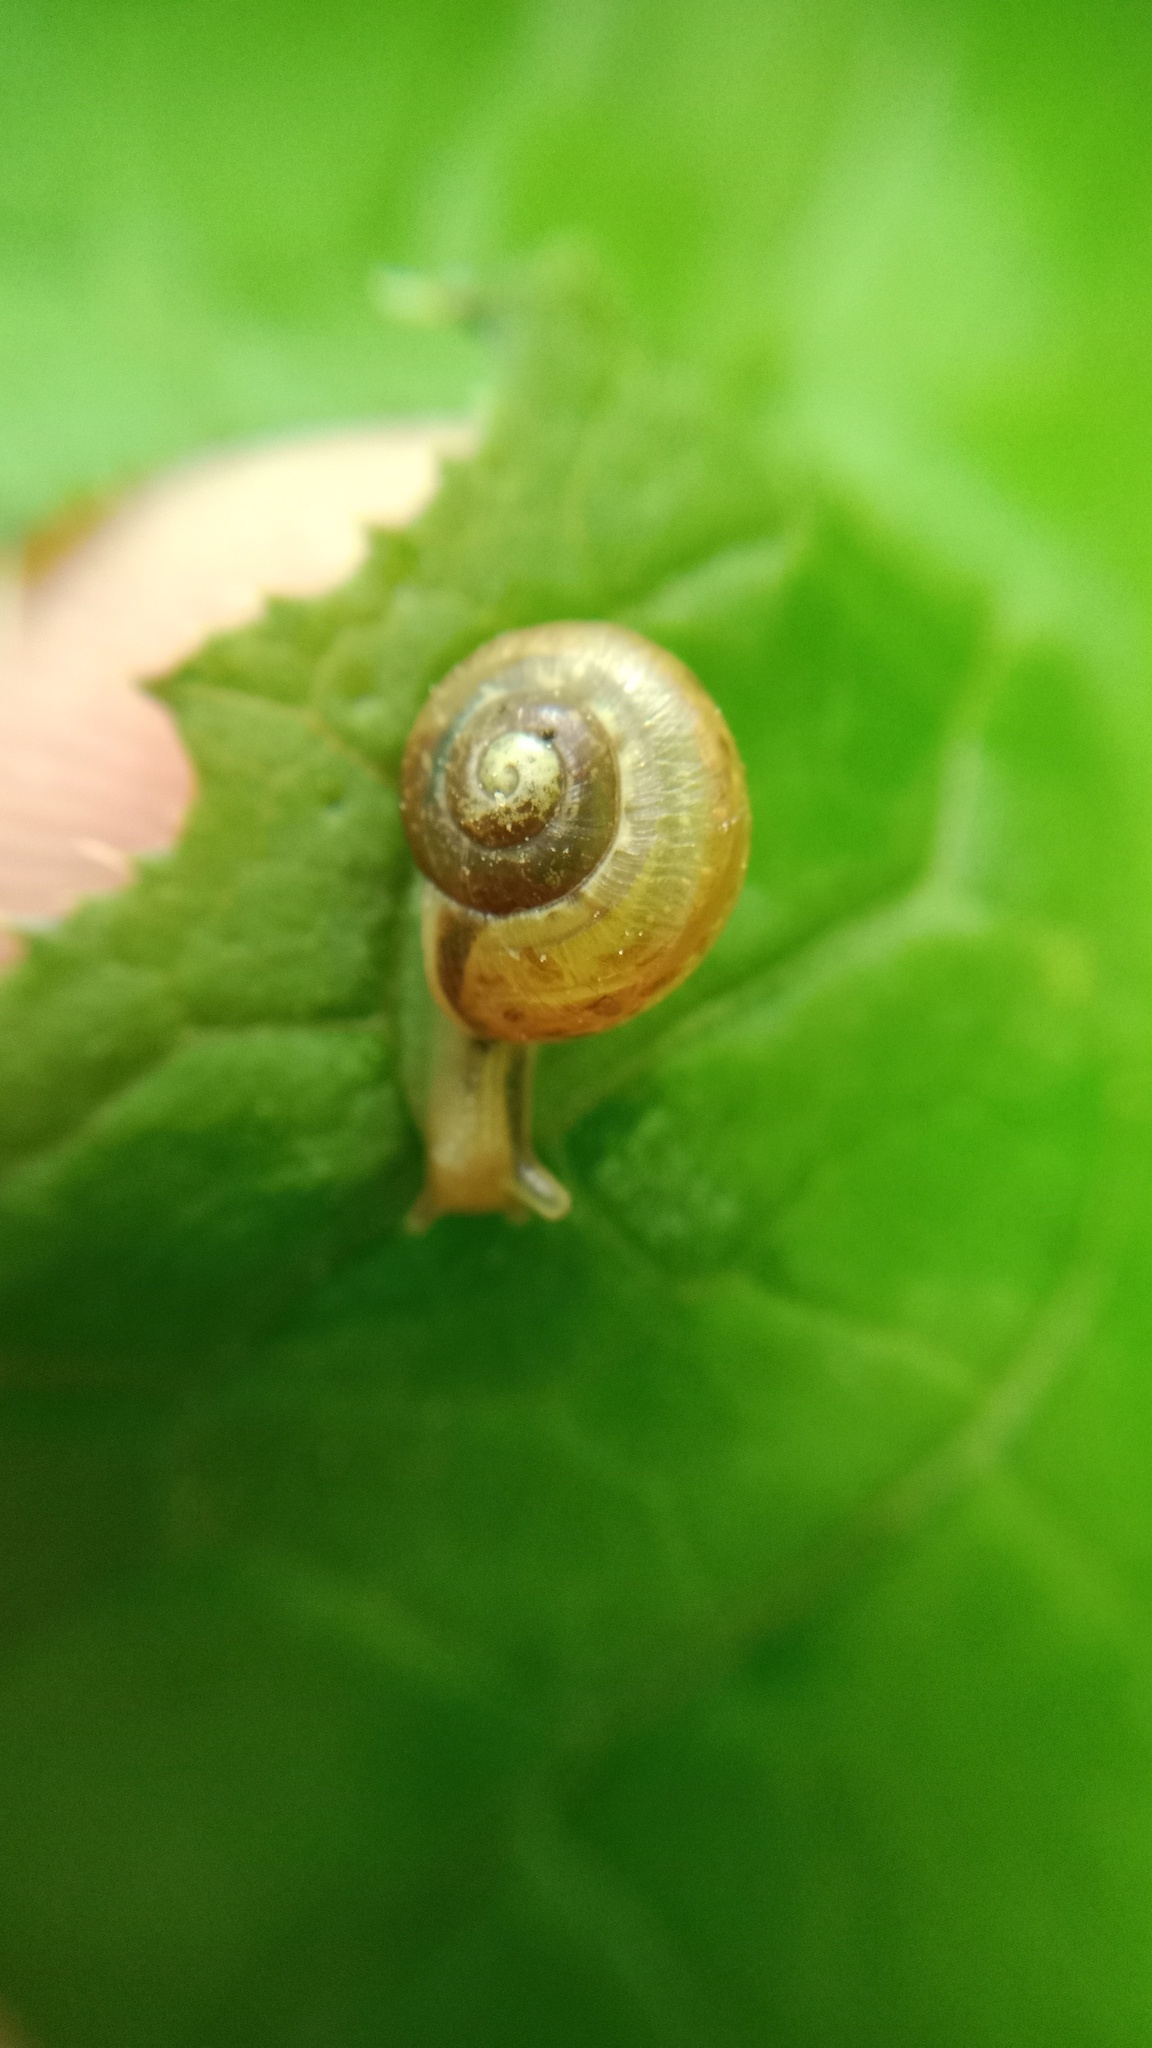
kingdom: Animalia
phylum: Mollusca
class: Gastropoda
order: Stylommatophora
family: Camaenidae
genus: Fruticicola
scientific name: Fruticicola fruticum
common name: Bush snail
